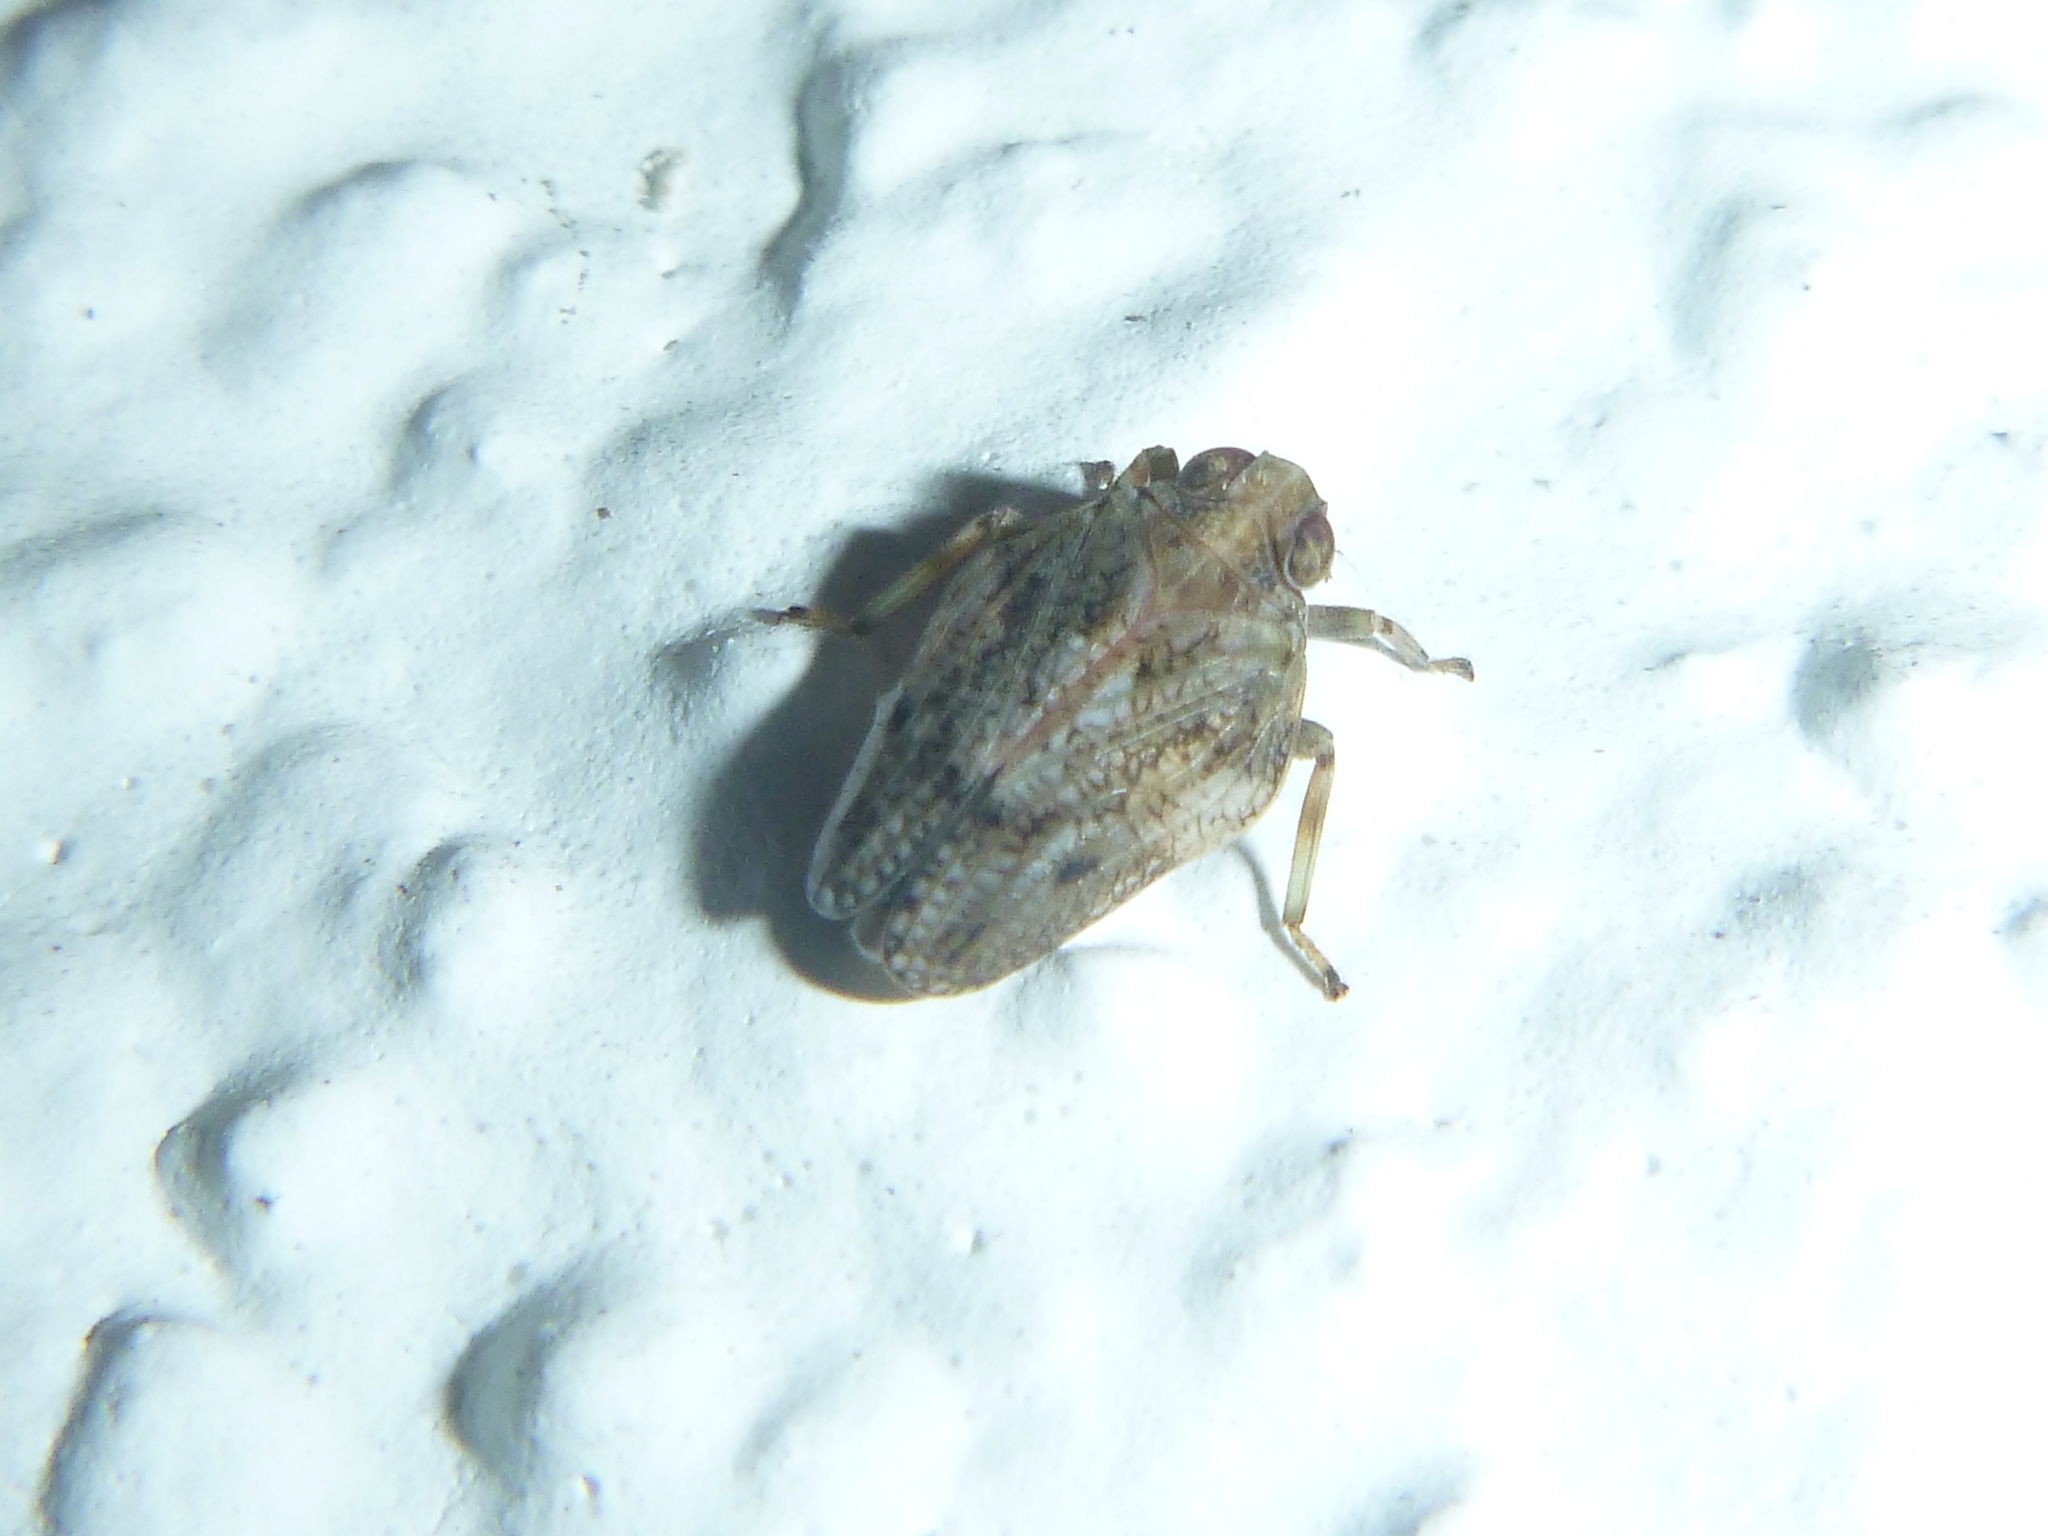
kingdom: Animalia
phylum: Arthropoda
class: Insecta
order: Hemiptera
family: Issidae
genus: Issus
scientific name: Issus coleoptratus
